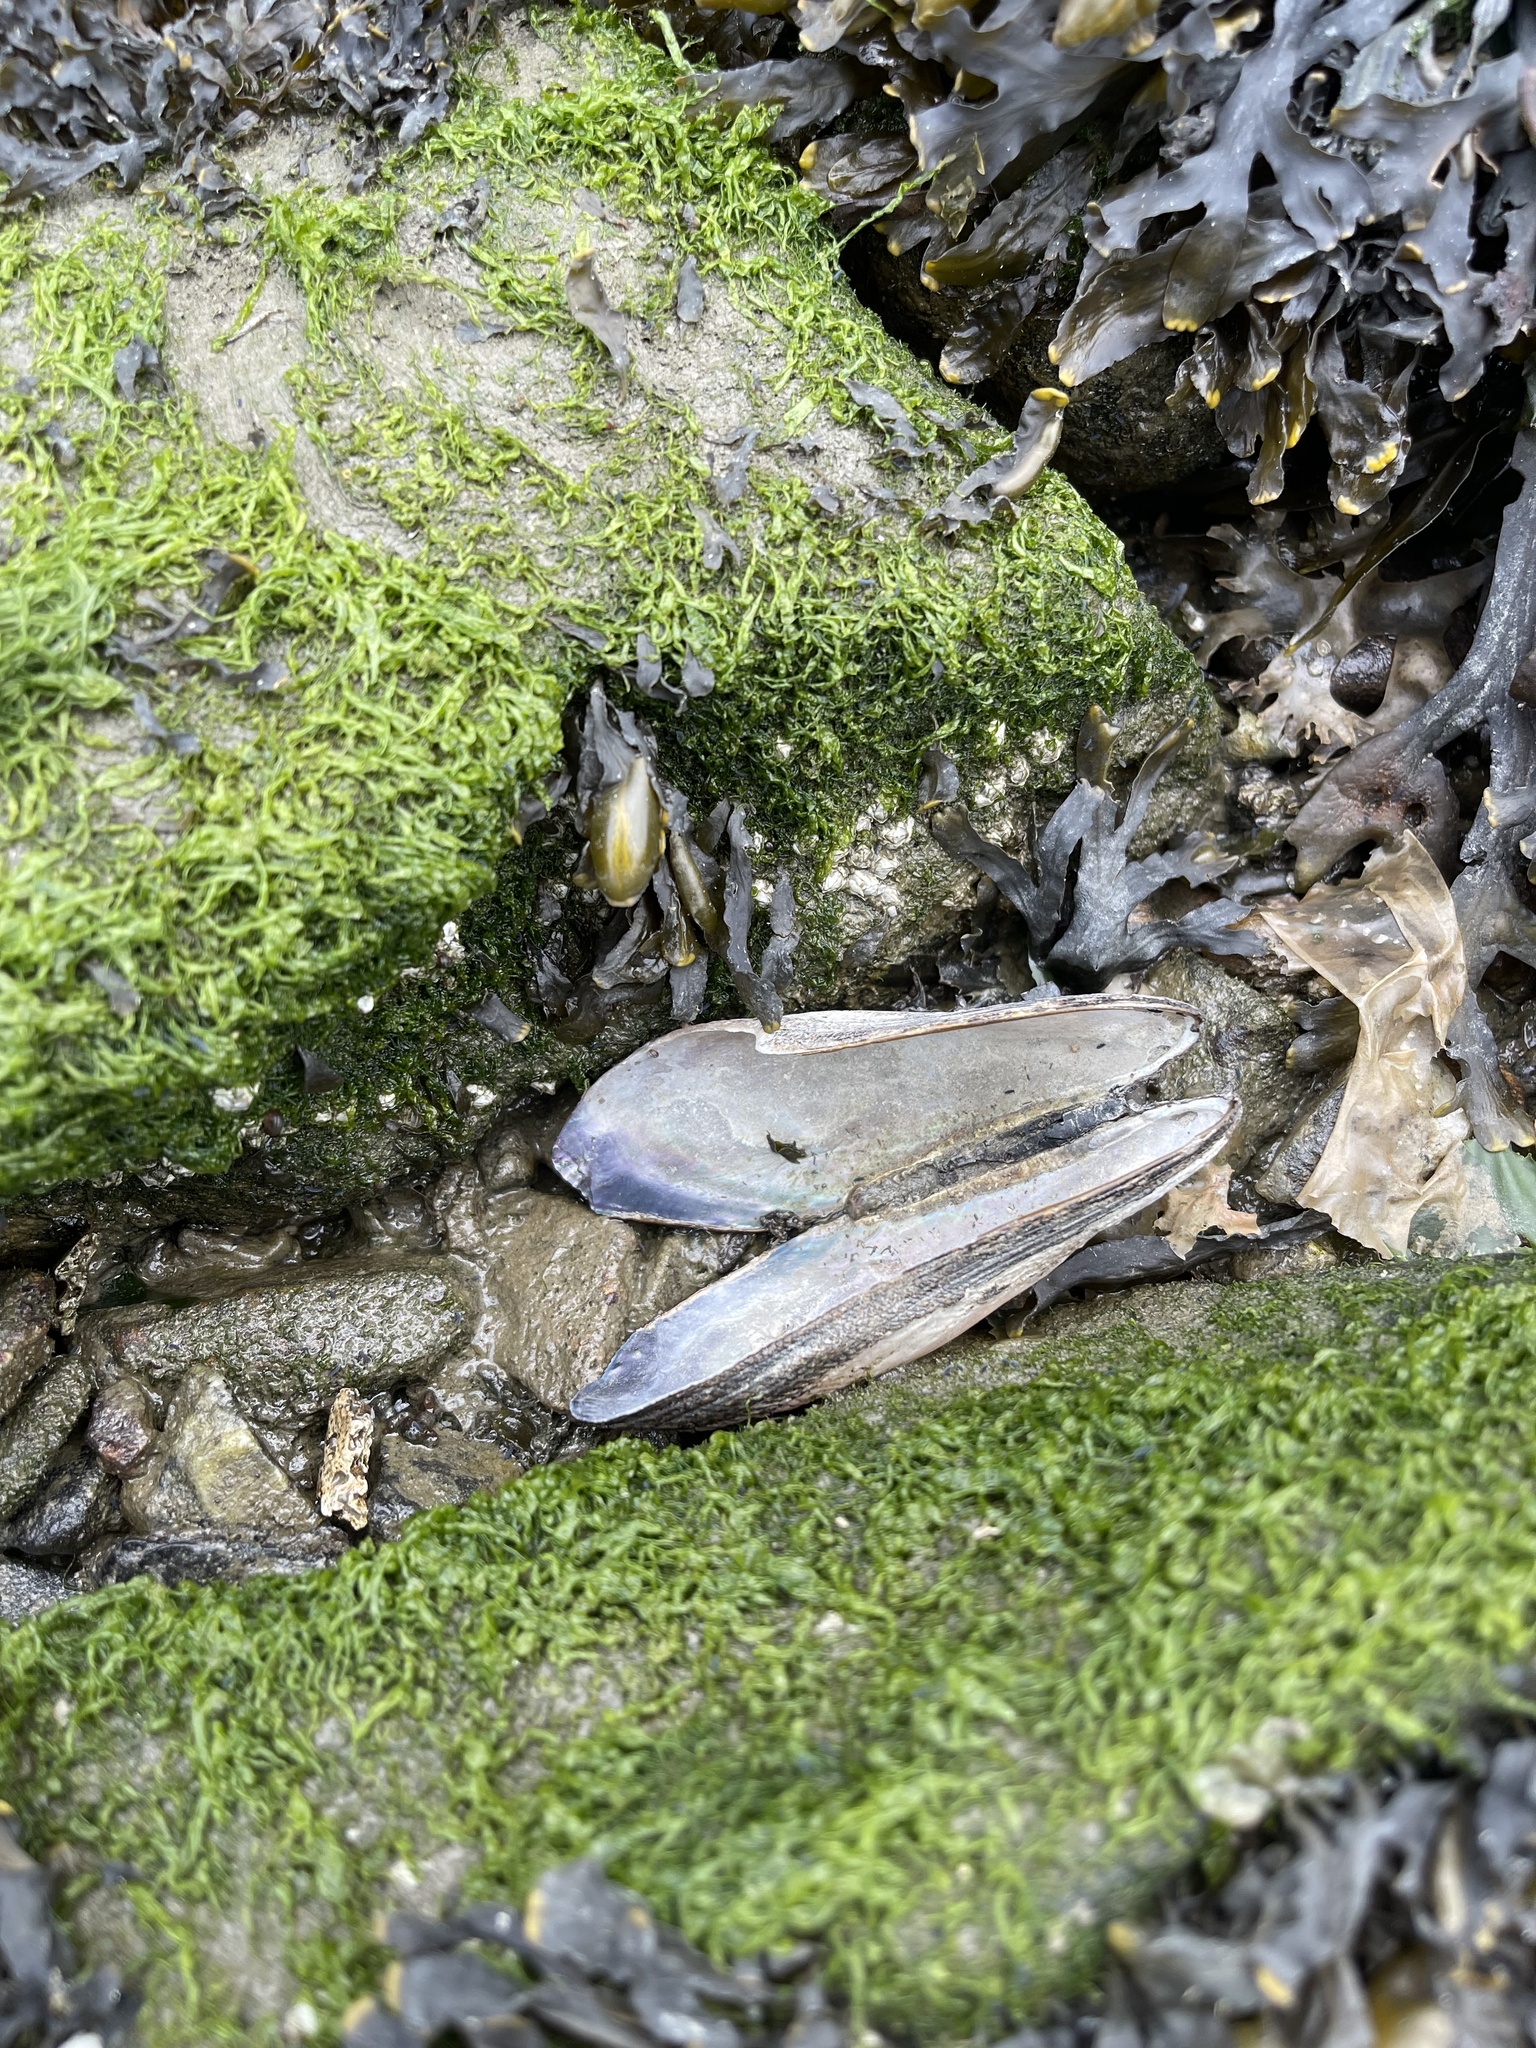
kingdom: Animalia
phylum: Mollusca
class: Bivalvia
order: Mytilida
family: Mytilidae
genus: Geukensia
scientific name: Geukensia demissa
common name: Ribbed mussel
